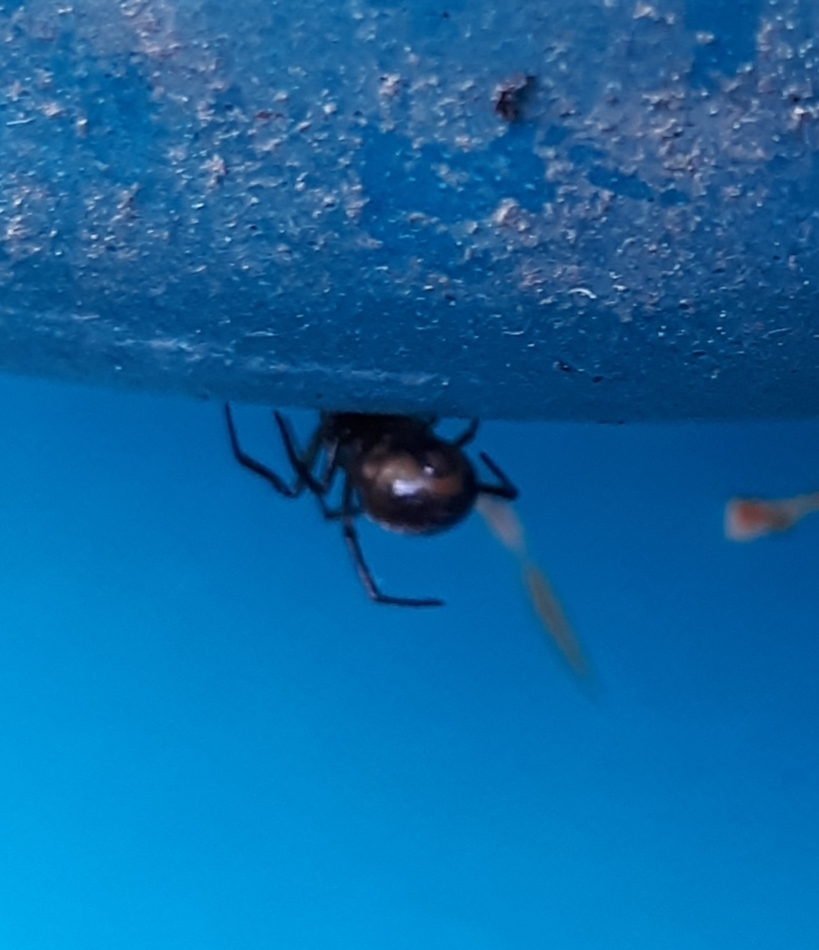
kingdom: Animalia
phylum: Arthropoda
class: Arachnida
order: Araneae
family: Theridiidae
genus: Steatoda
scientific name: Steatoda borealis
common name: Boreal combfoot
